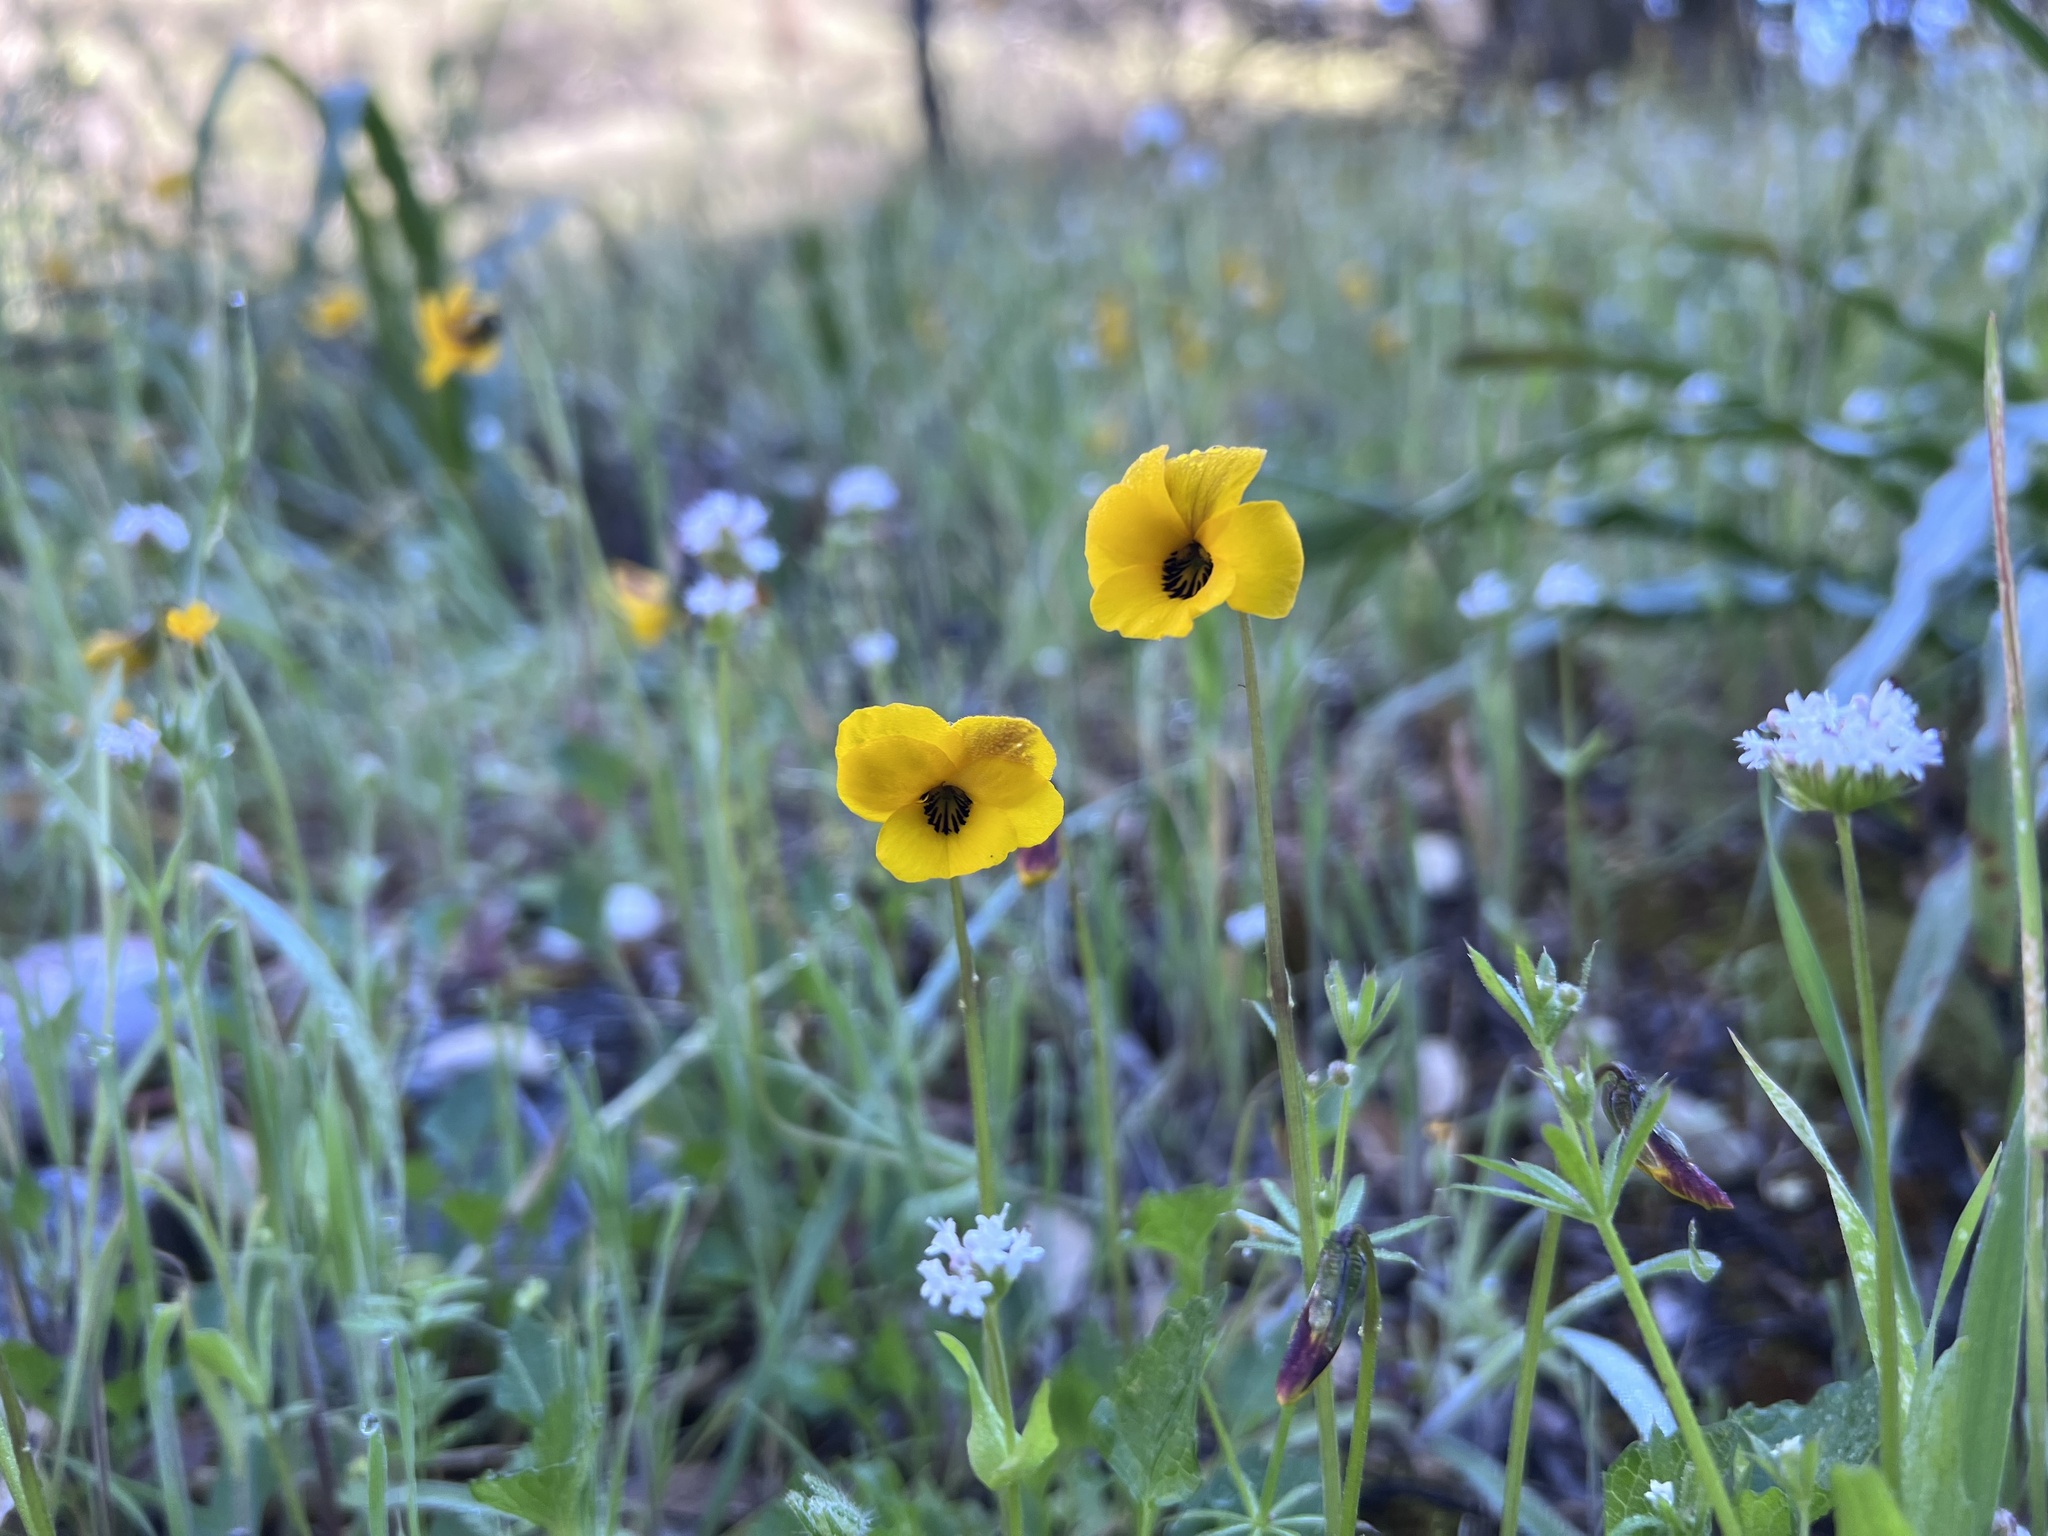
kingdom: Plantae
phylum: Tracheophyta
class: Magnoliopsida
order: Malpighiales
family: Violaceae
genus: Viola
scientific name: Viola pedunculata
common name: California golden violet
